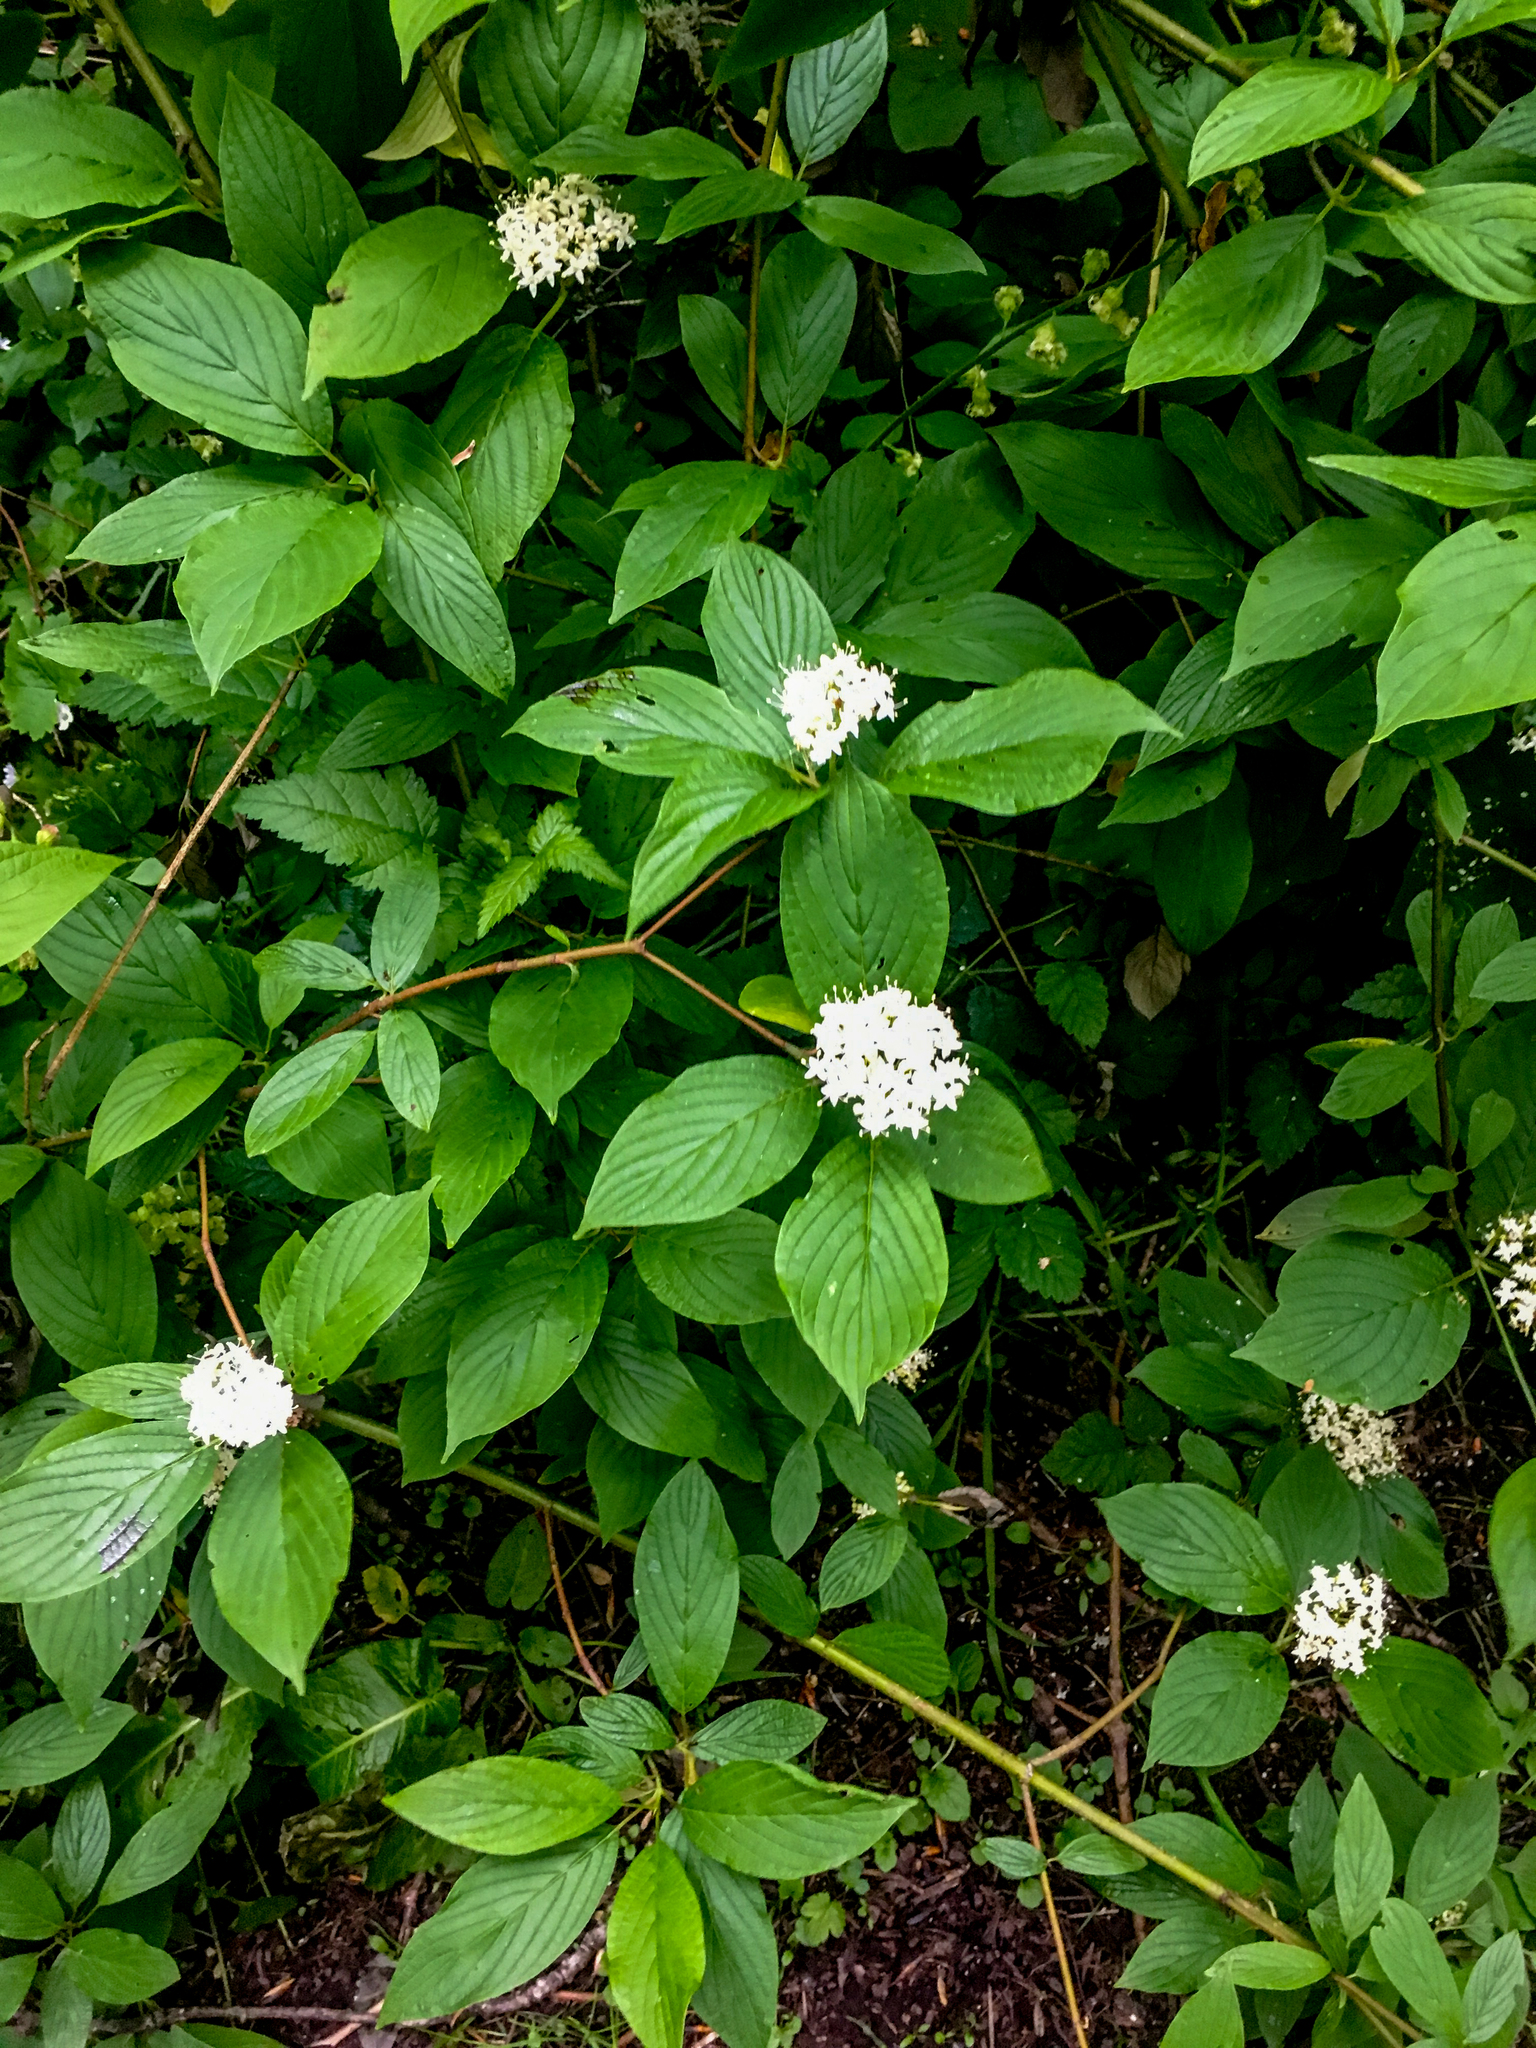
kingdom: Plantae
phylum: Tracheophyta
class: Magnoliopsida
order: Cornales
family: Cornaceae
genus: Cornus
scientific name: Cornus sericea
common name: Red-osier dogwood
